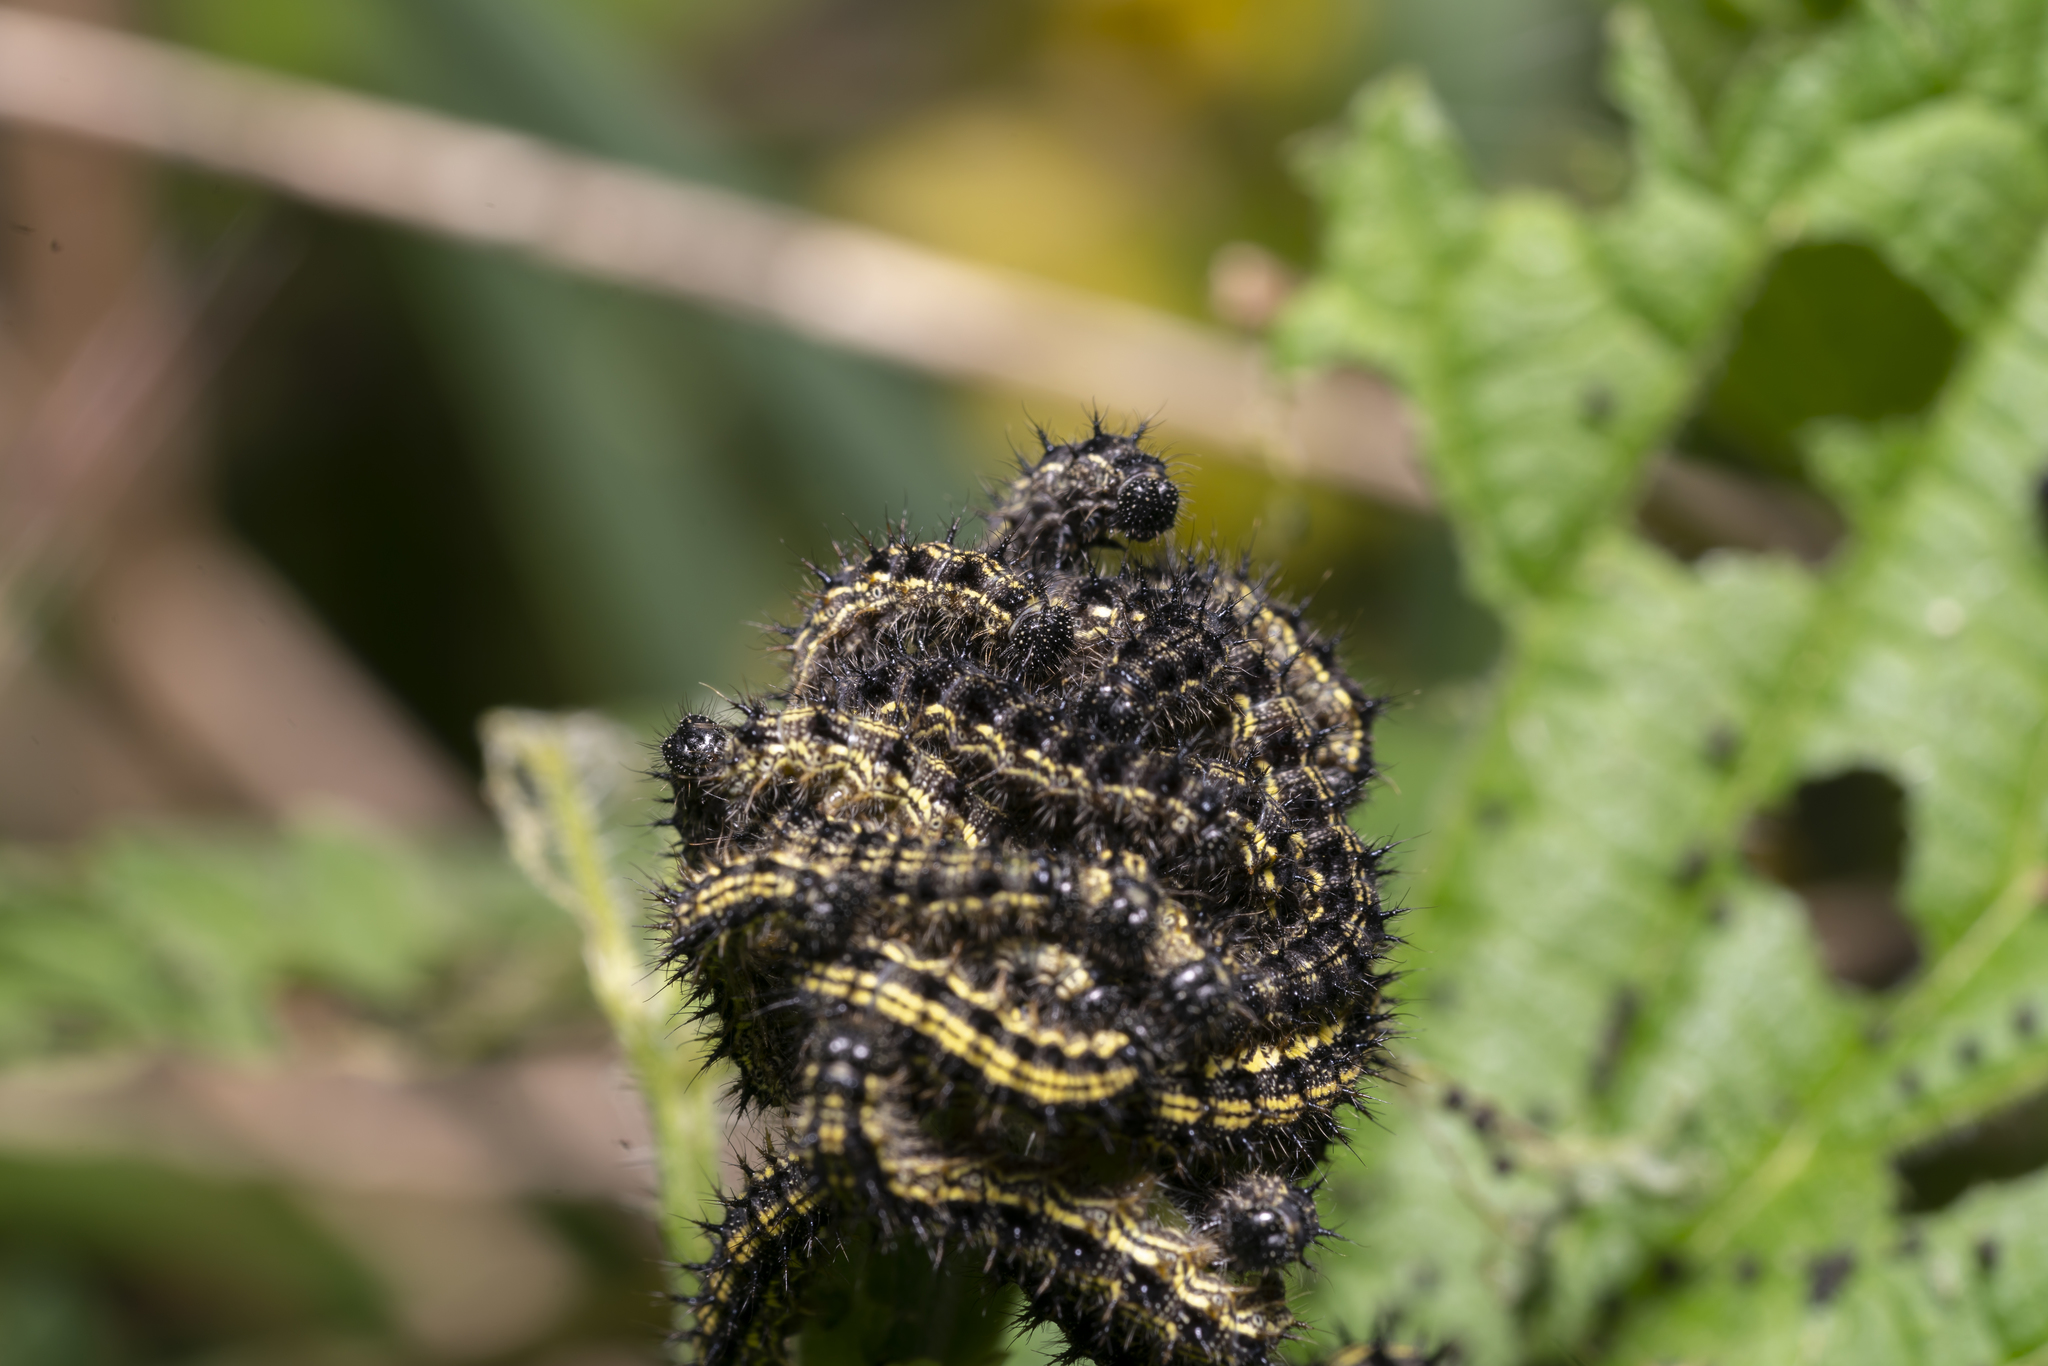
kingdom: Animalia
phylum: Arthropoda
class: Insecta
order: Lepidoptera
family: Nymphalidae
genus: Aglais
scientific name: Aglais urticae
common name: Small tortoiseshell
